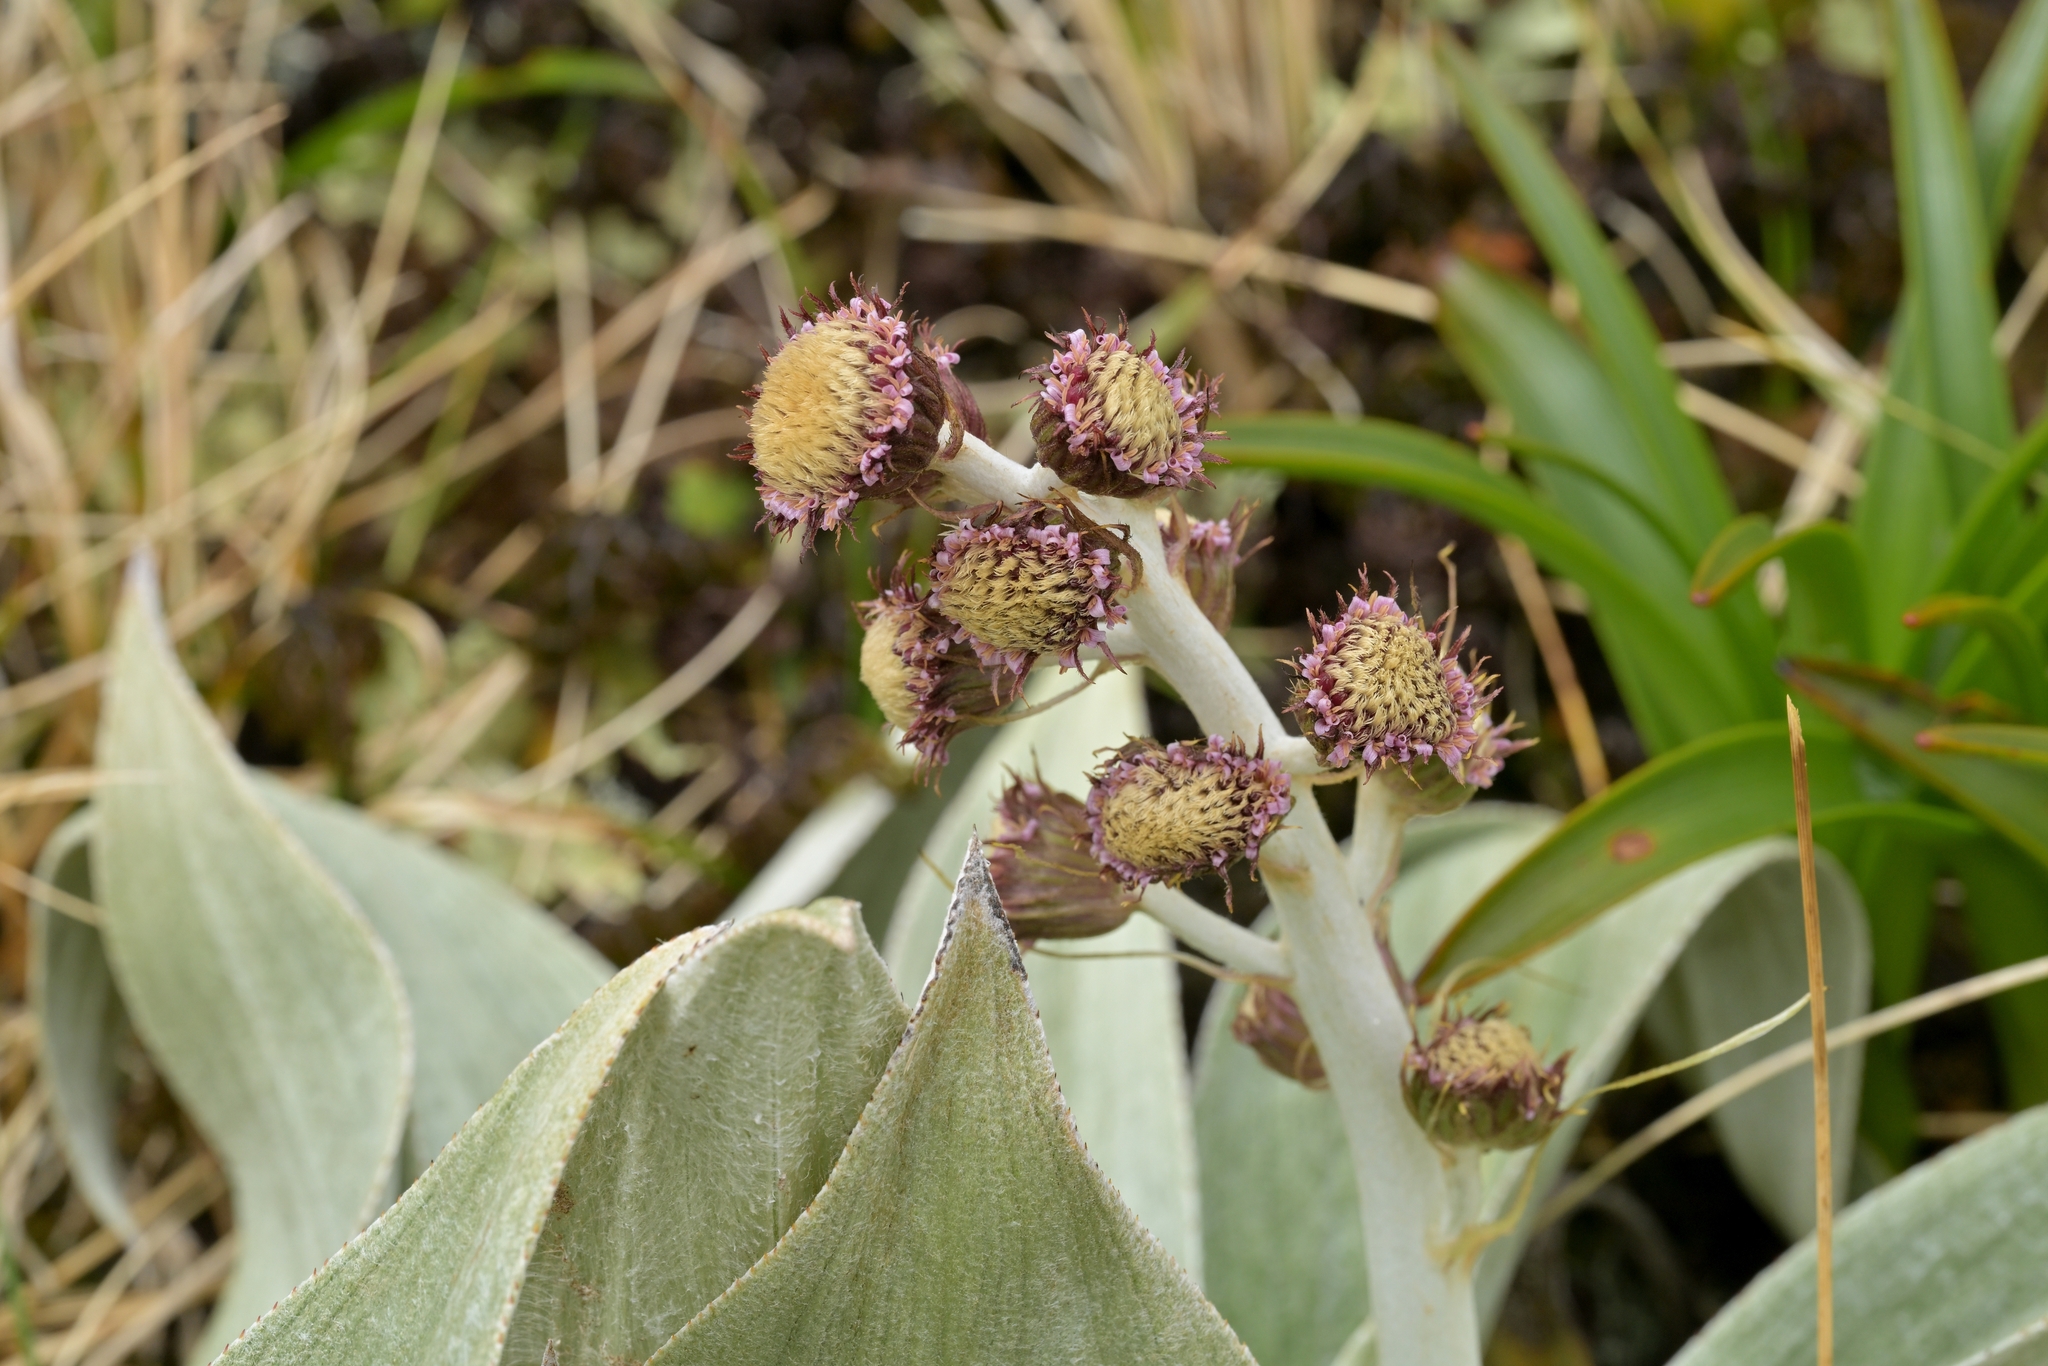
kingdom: Plantae
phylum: Tracheophyta
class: Magnoliopsida
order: Asterales
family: Asteraceae
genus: Pleurophyllum
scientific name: Pleurophyllum hookeri
